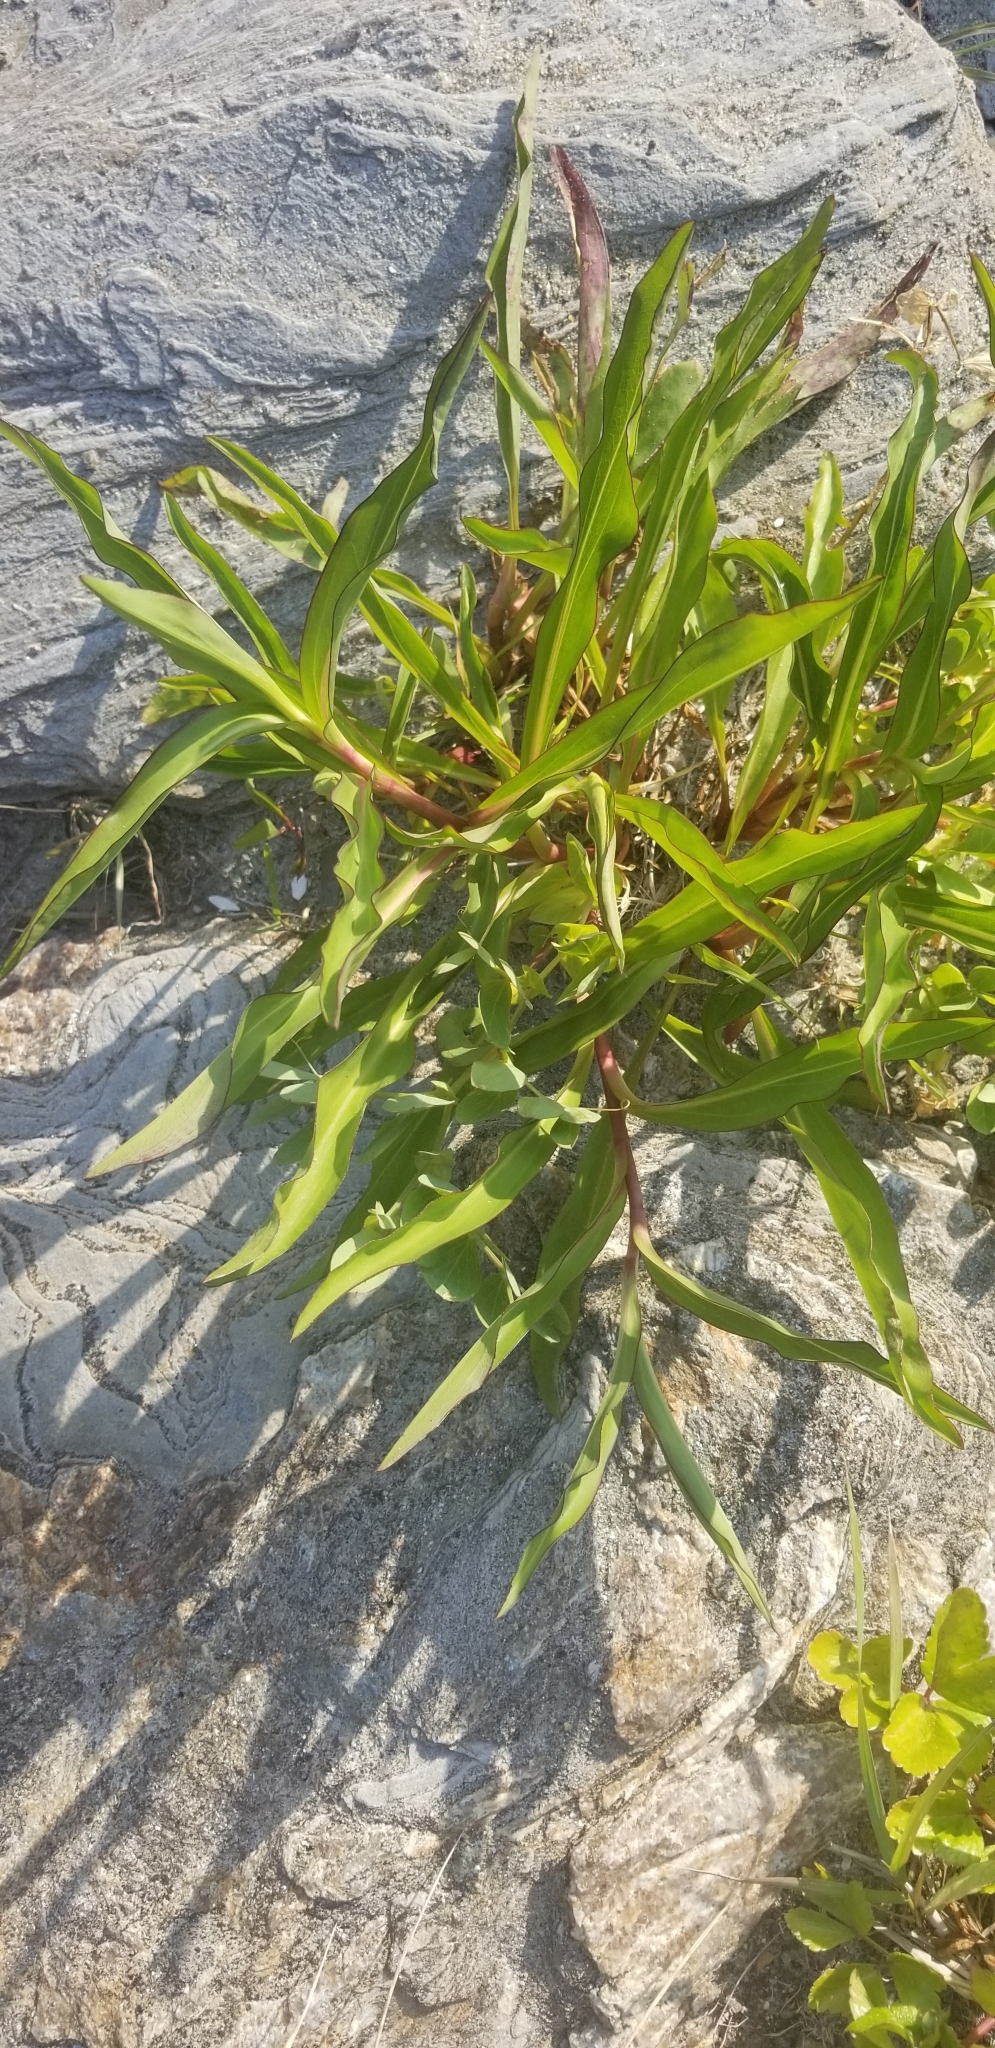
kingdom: Plantae
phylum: Tracheophyta
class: Magnoliopsida
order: Asterales
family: Asteraceae
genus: Solidago
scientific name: Solidago sempervirens
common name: Salt-marsh goldenrod
